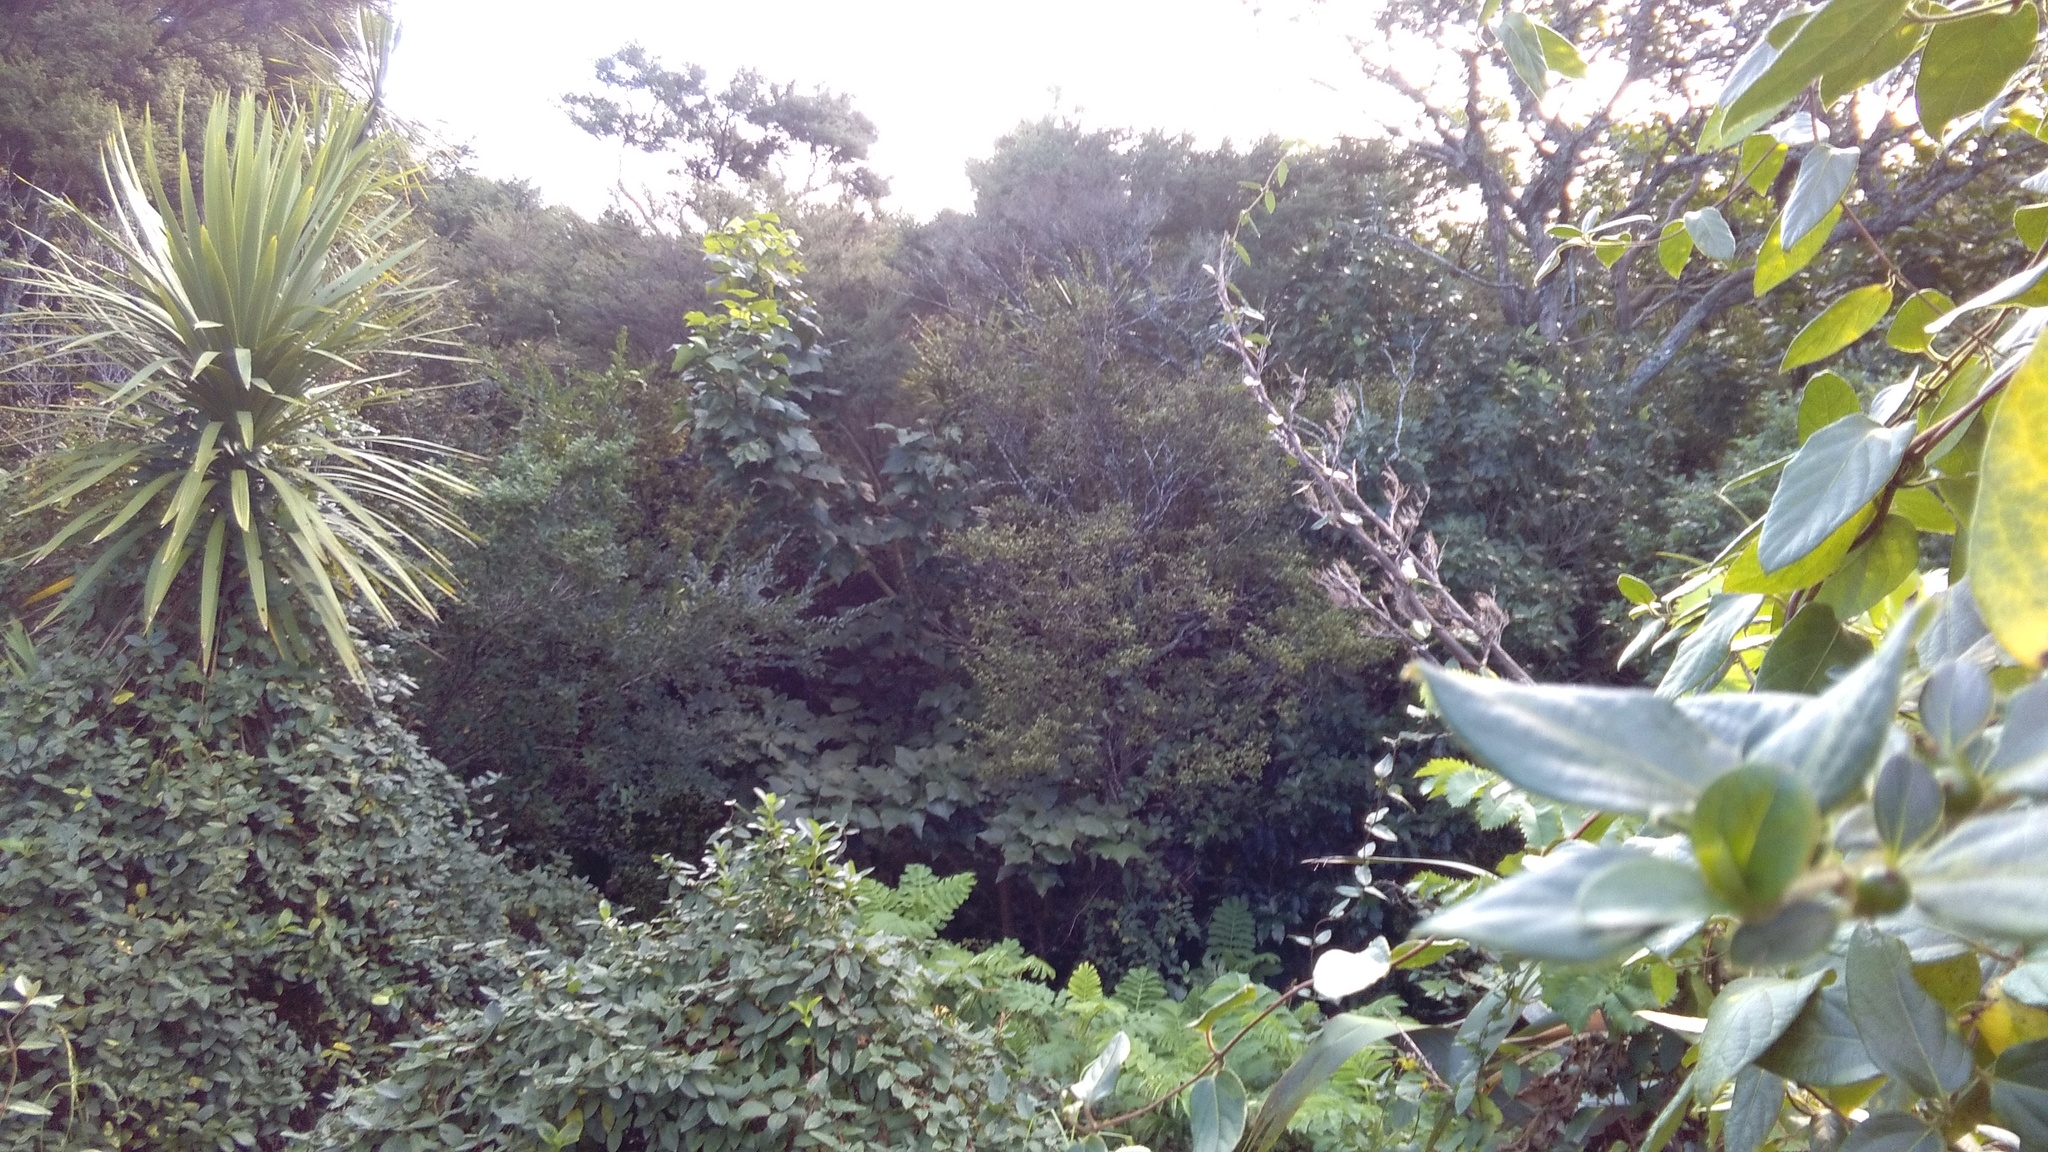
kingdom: Plantae
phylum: Tracheophyta
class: Magnoliopsida
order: Ericales
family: Primulaceae
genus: Myrsine
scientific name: Myrsine australis
